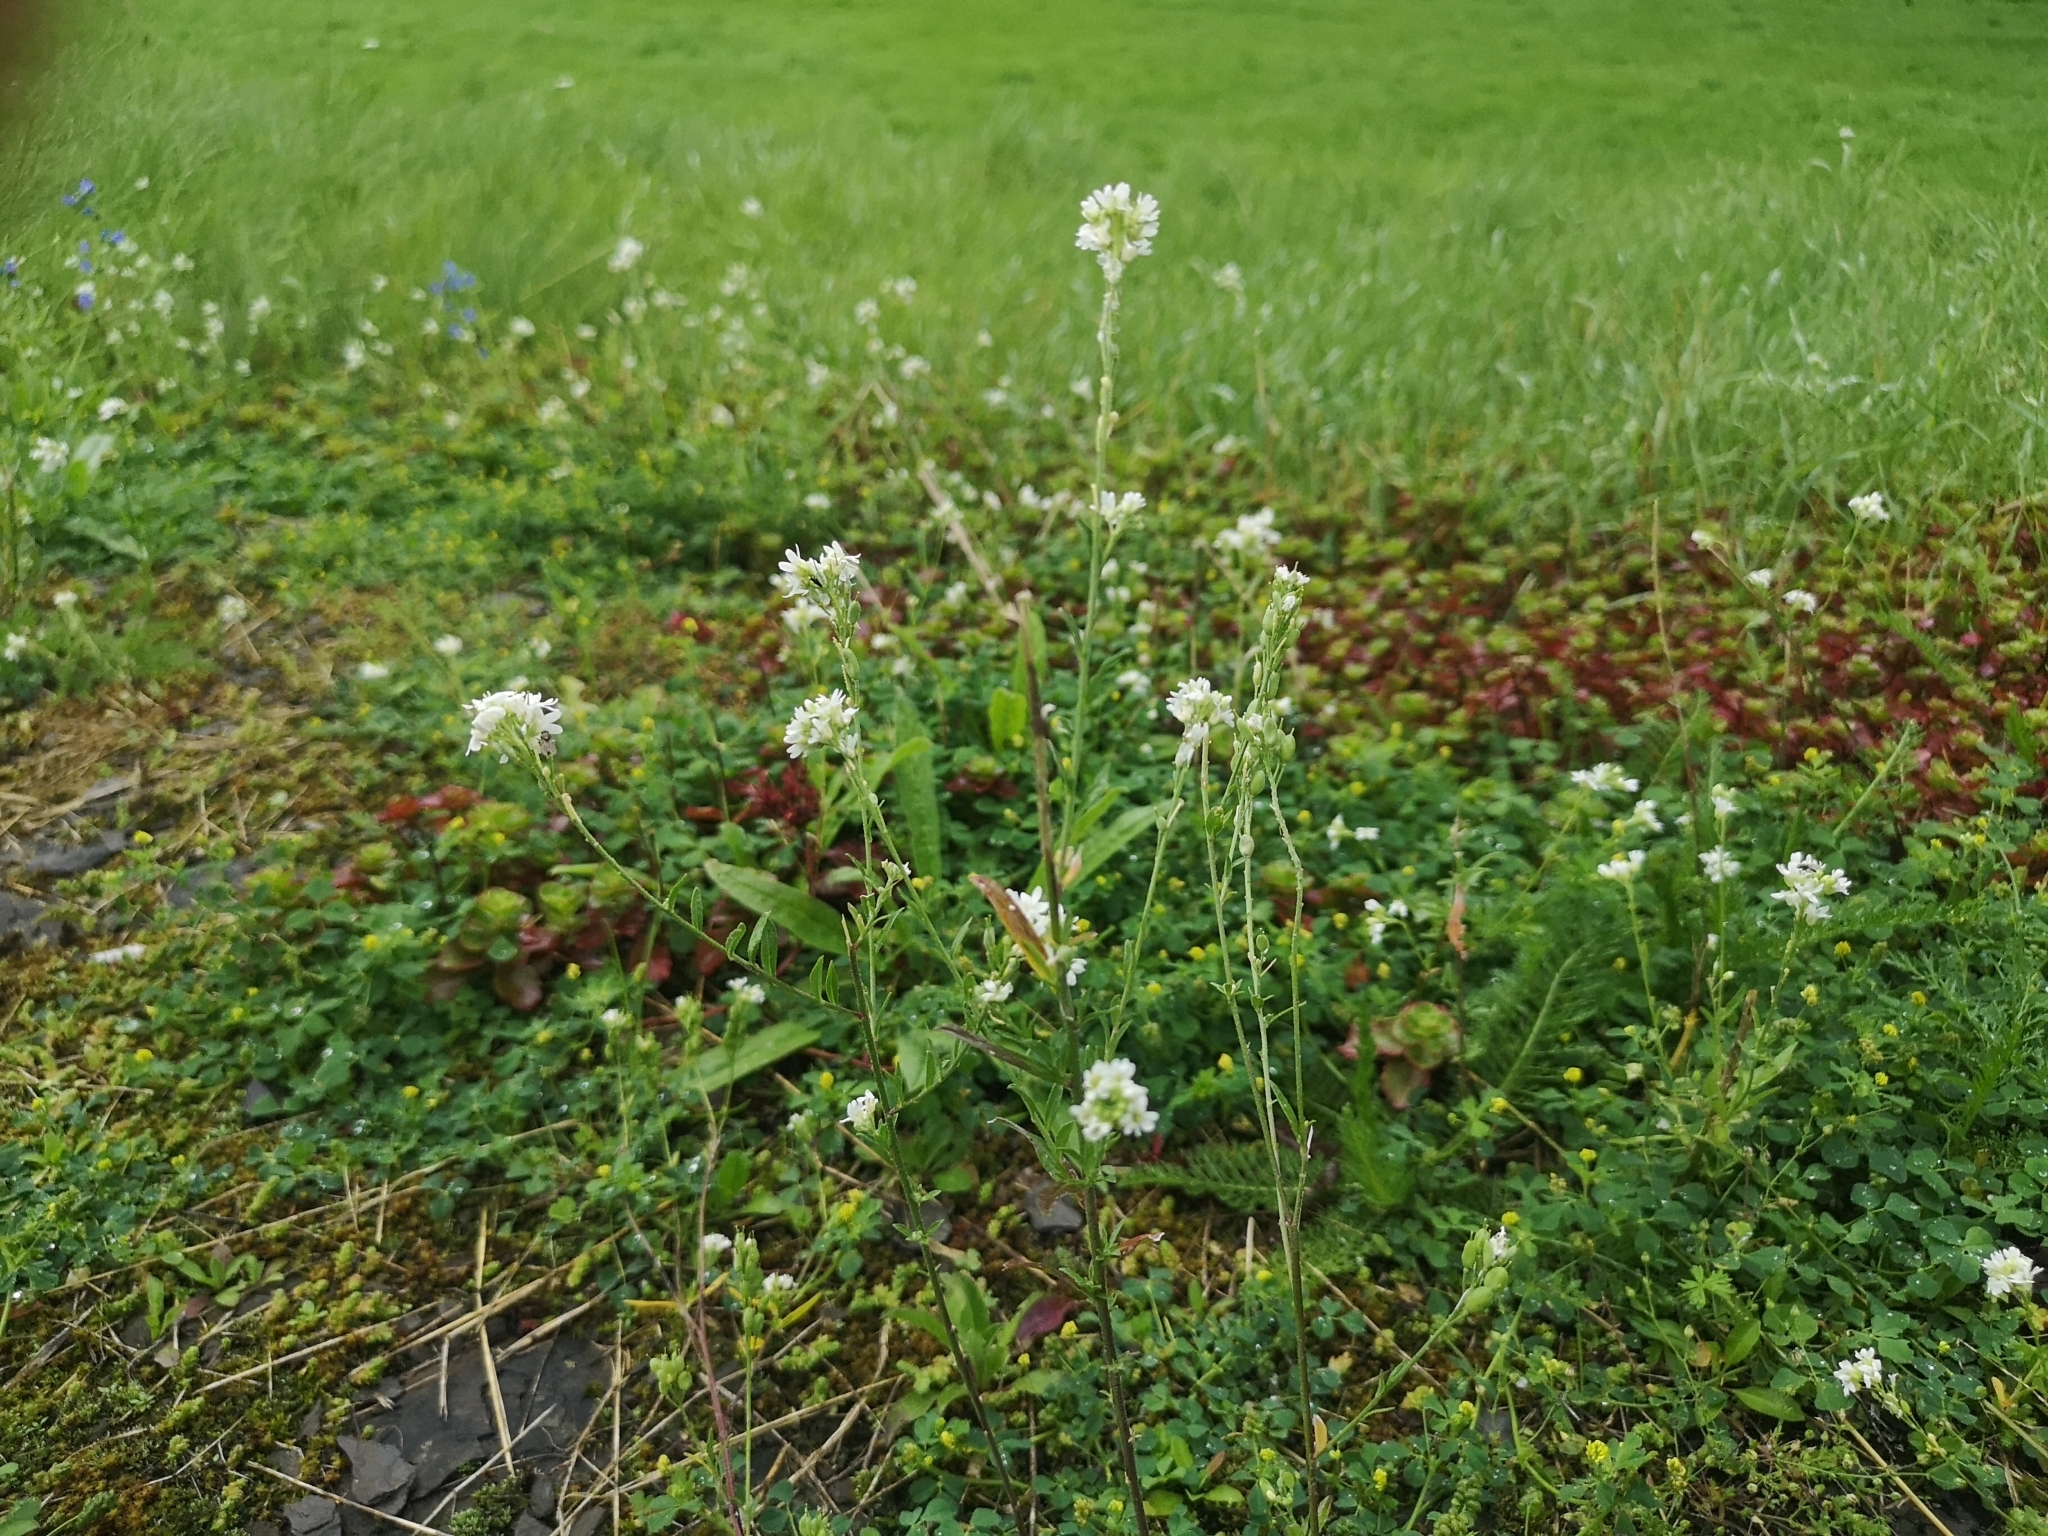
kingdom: Plantae
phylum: Tracheophyta
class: Magnoliopsida
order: Brassicales
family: Brassicaceae
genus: Berteroa
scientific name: Berteroa incana
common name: Hoary alison
